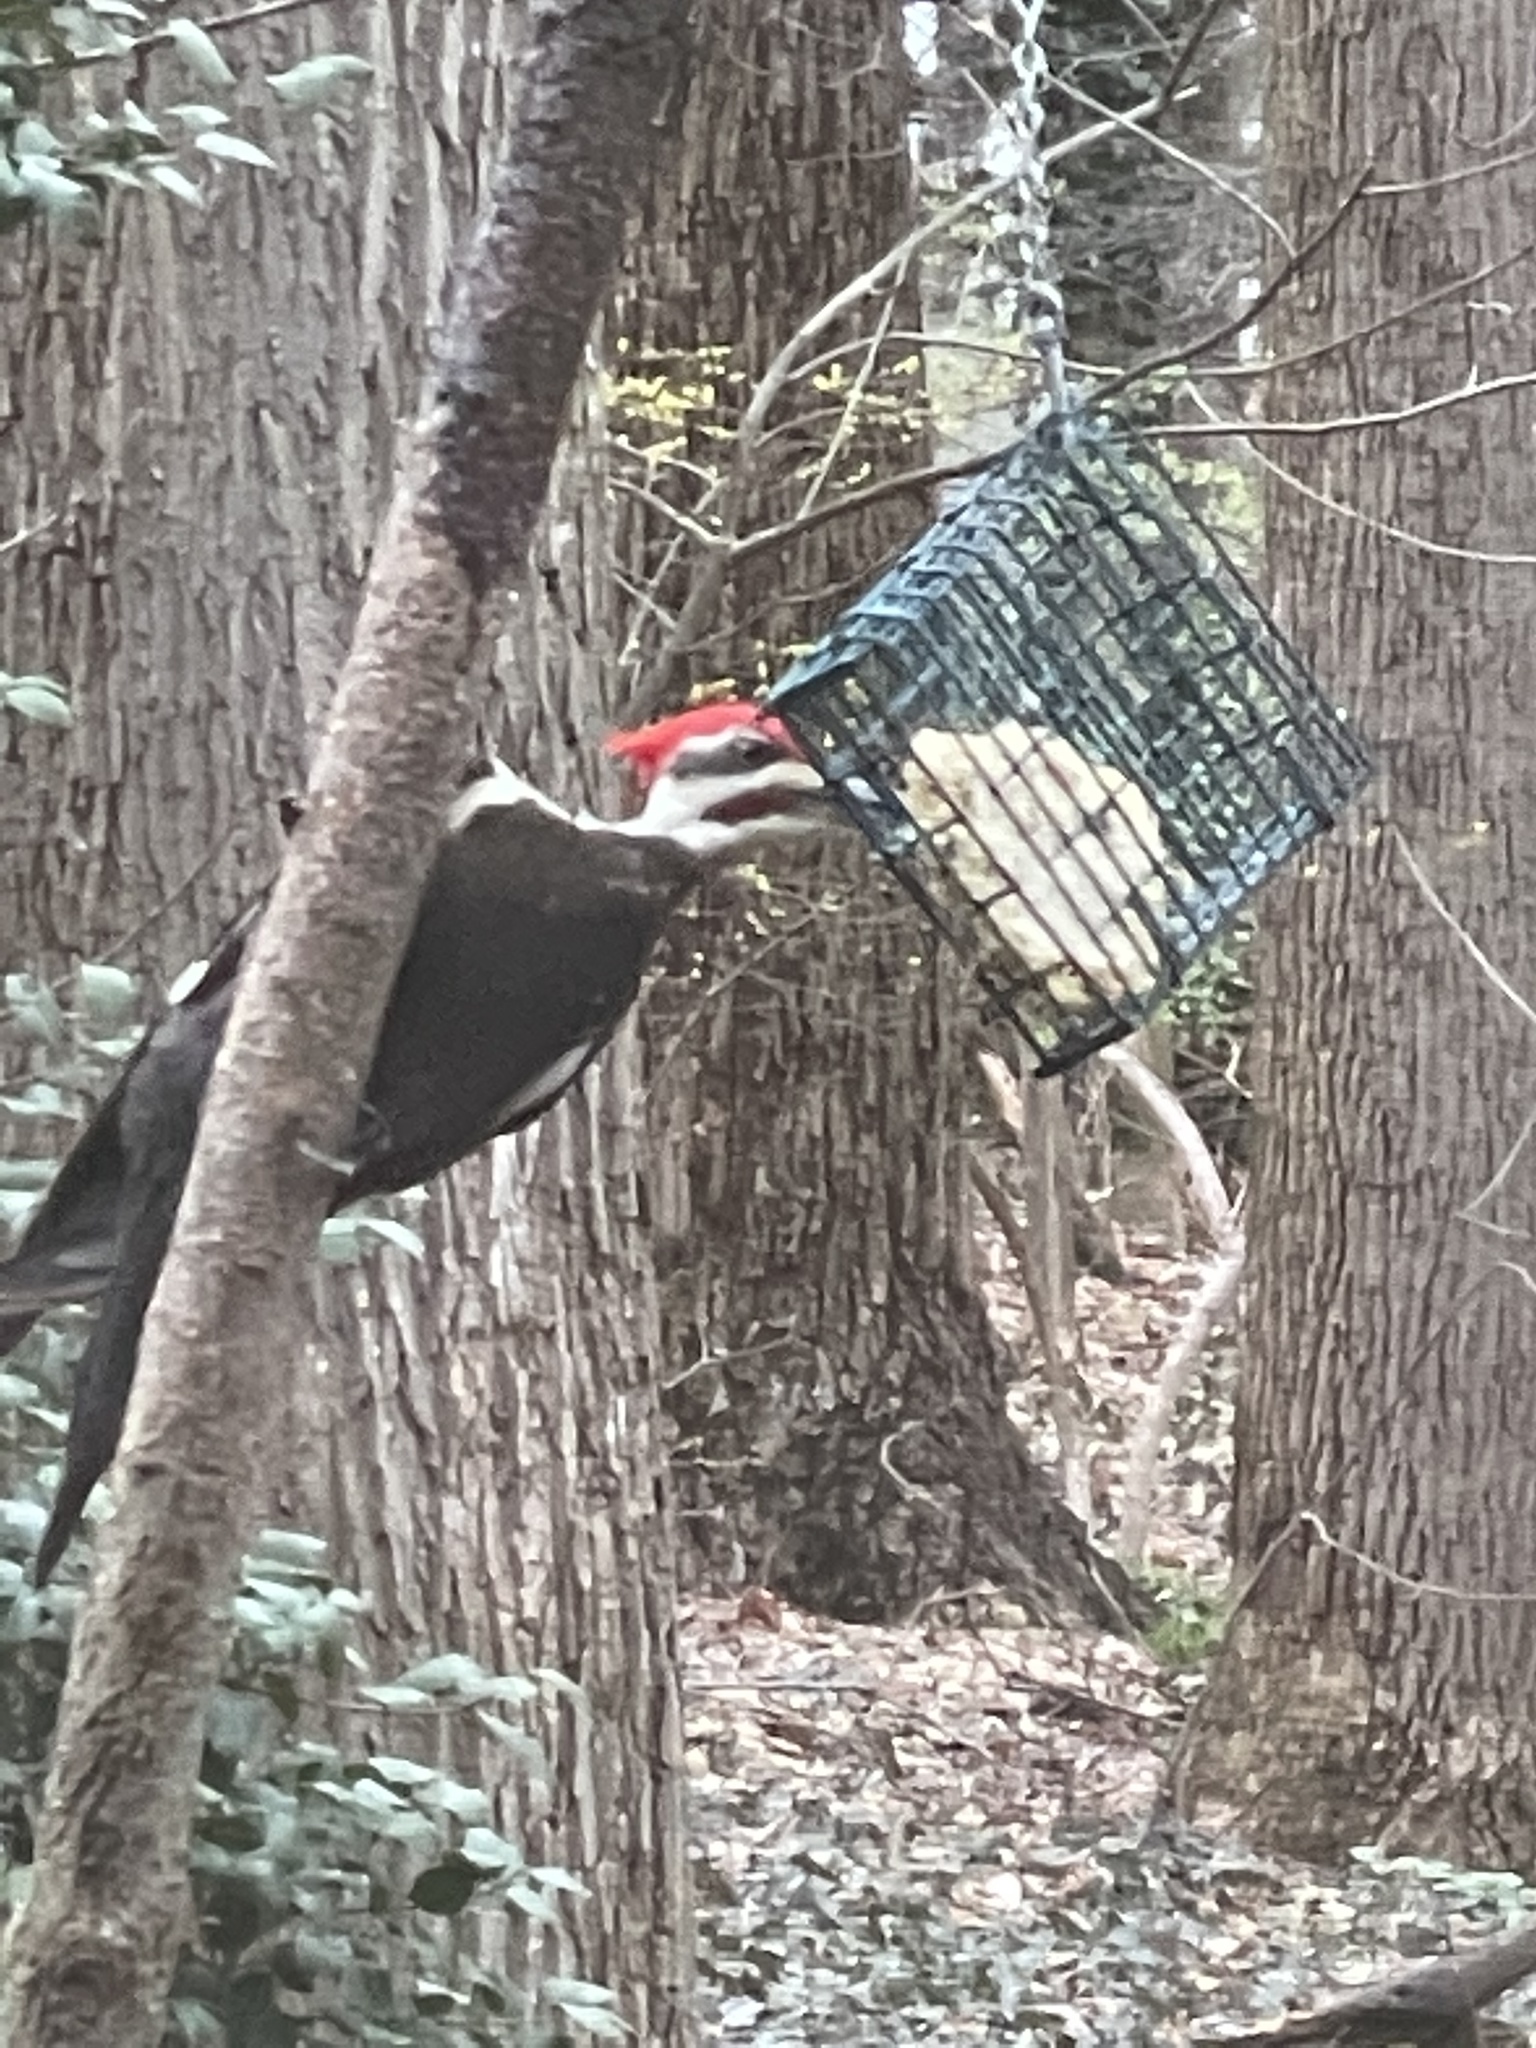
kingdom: Animalia
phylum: Chordata
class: Aves
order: Piciformes
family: Picidae
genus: Dryocopus
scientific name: Dryocopus pileatus
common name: Pileated woodpecker
